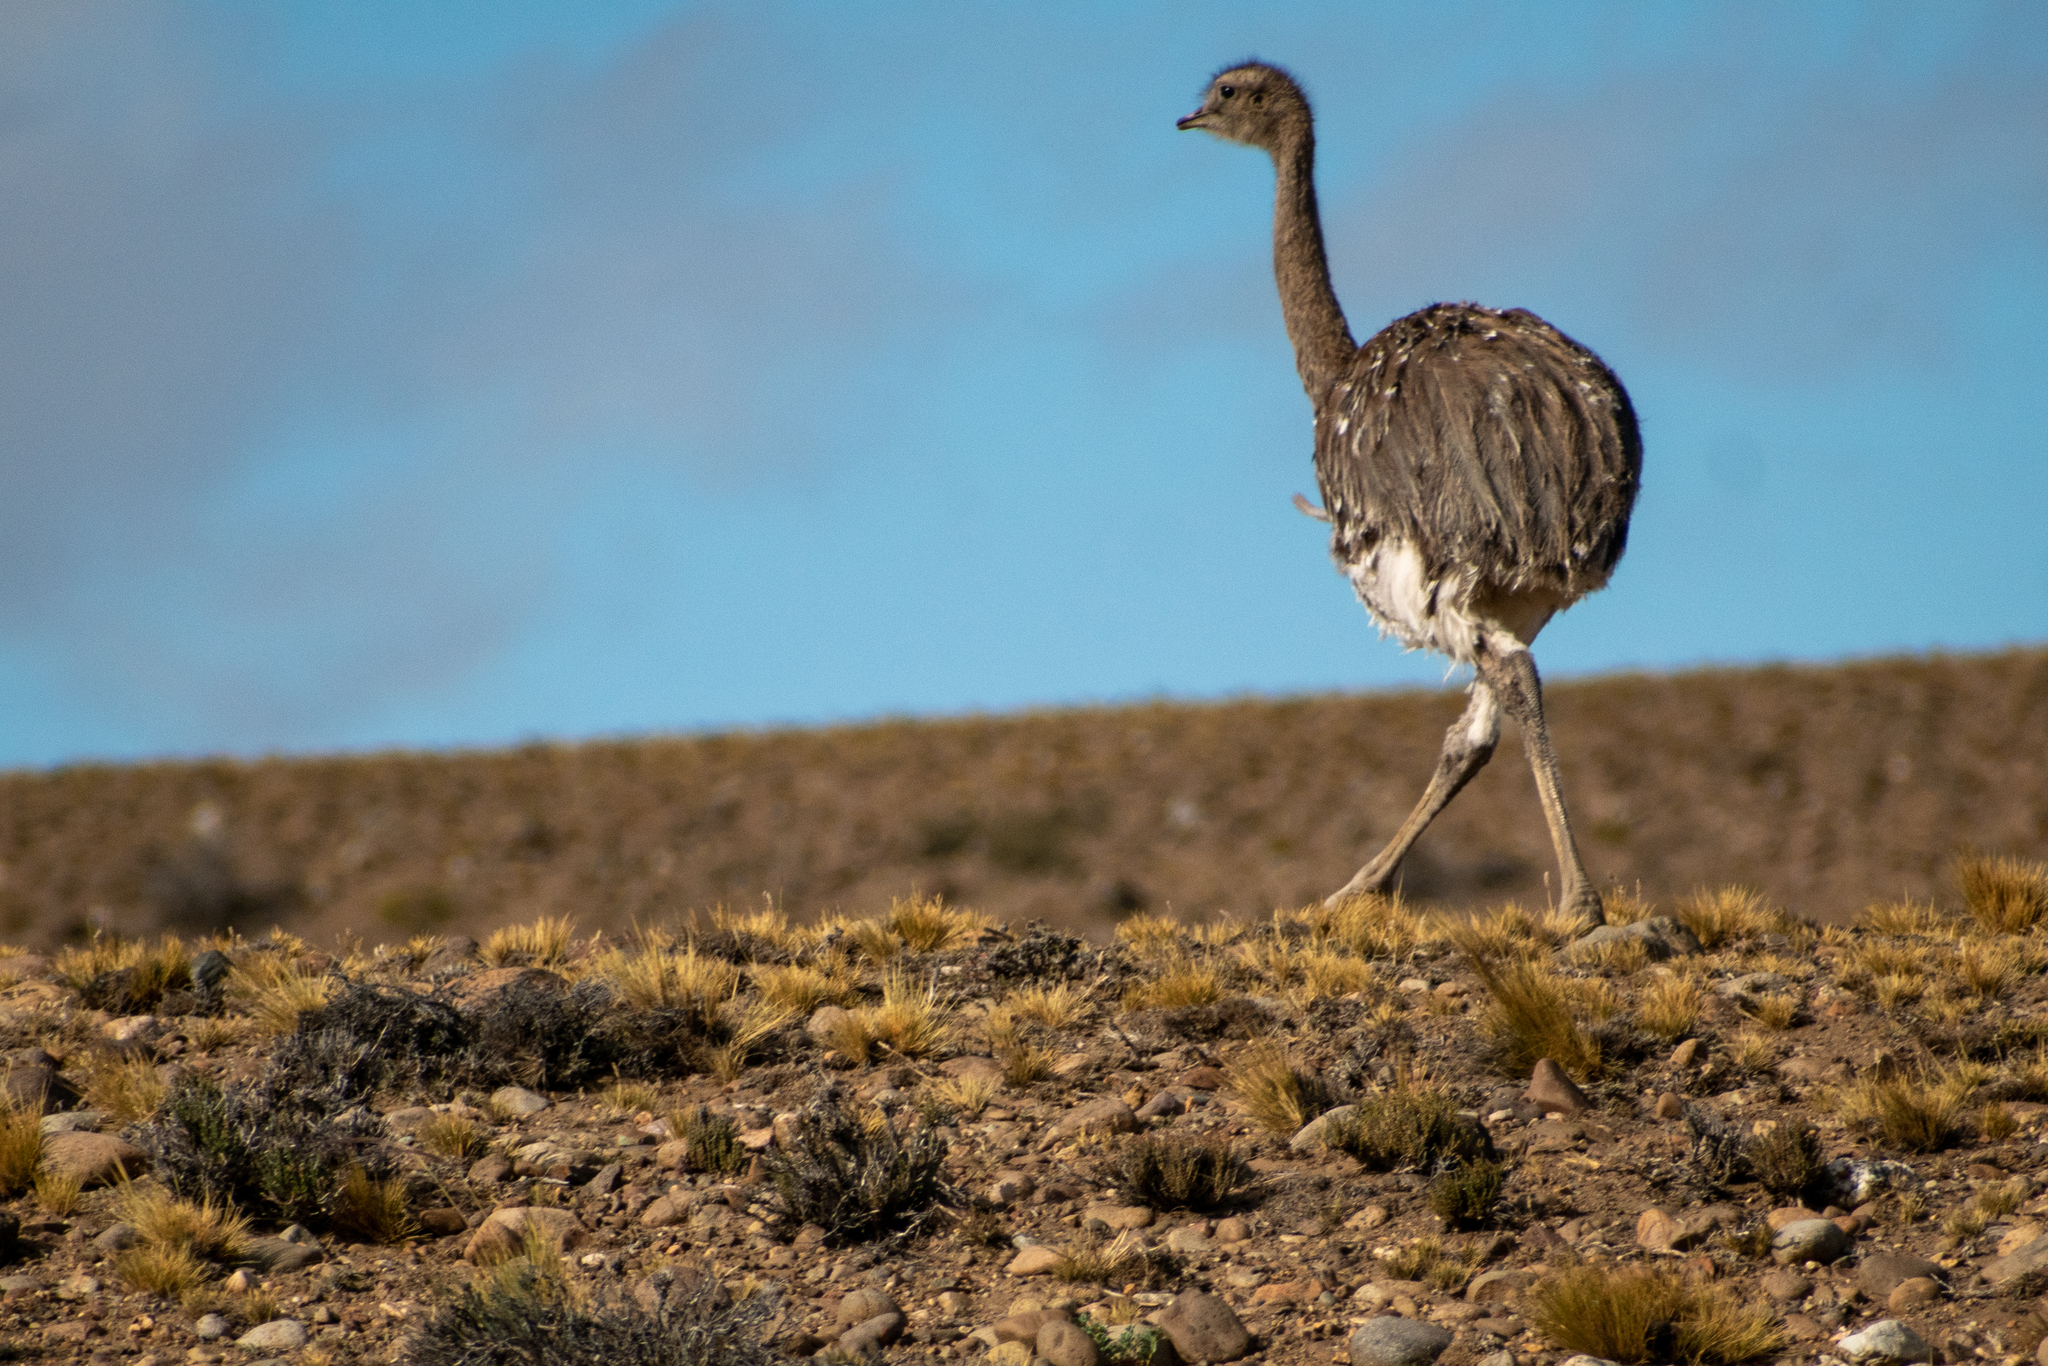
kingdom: Animalia
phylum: Chordata
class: Aves
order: Rheiformes
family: Rheidae
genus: Rhea
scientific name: Rhea pennata
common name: Lesser rhea
